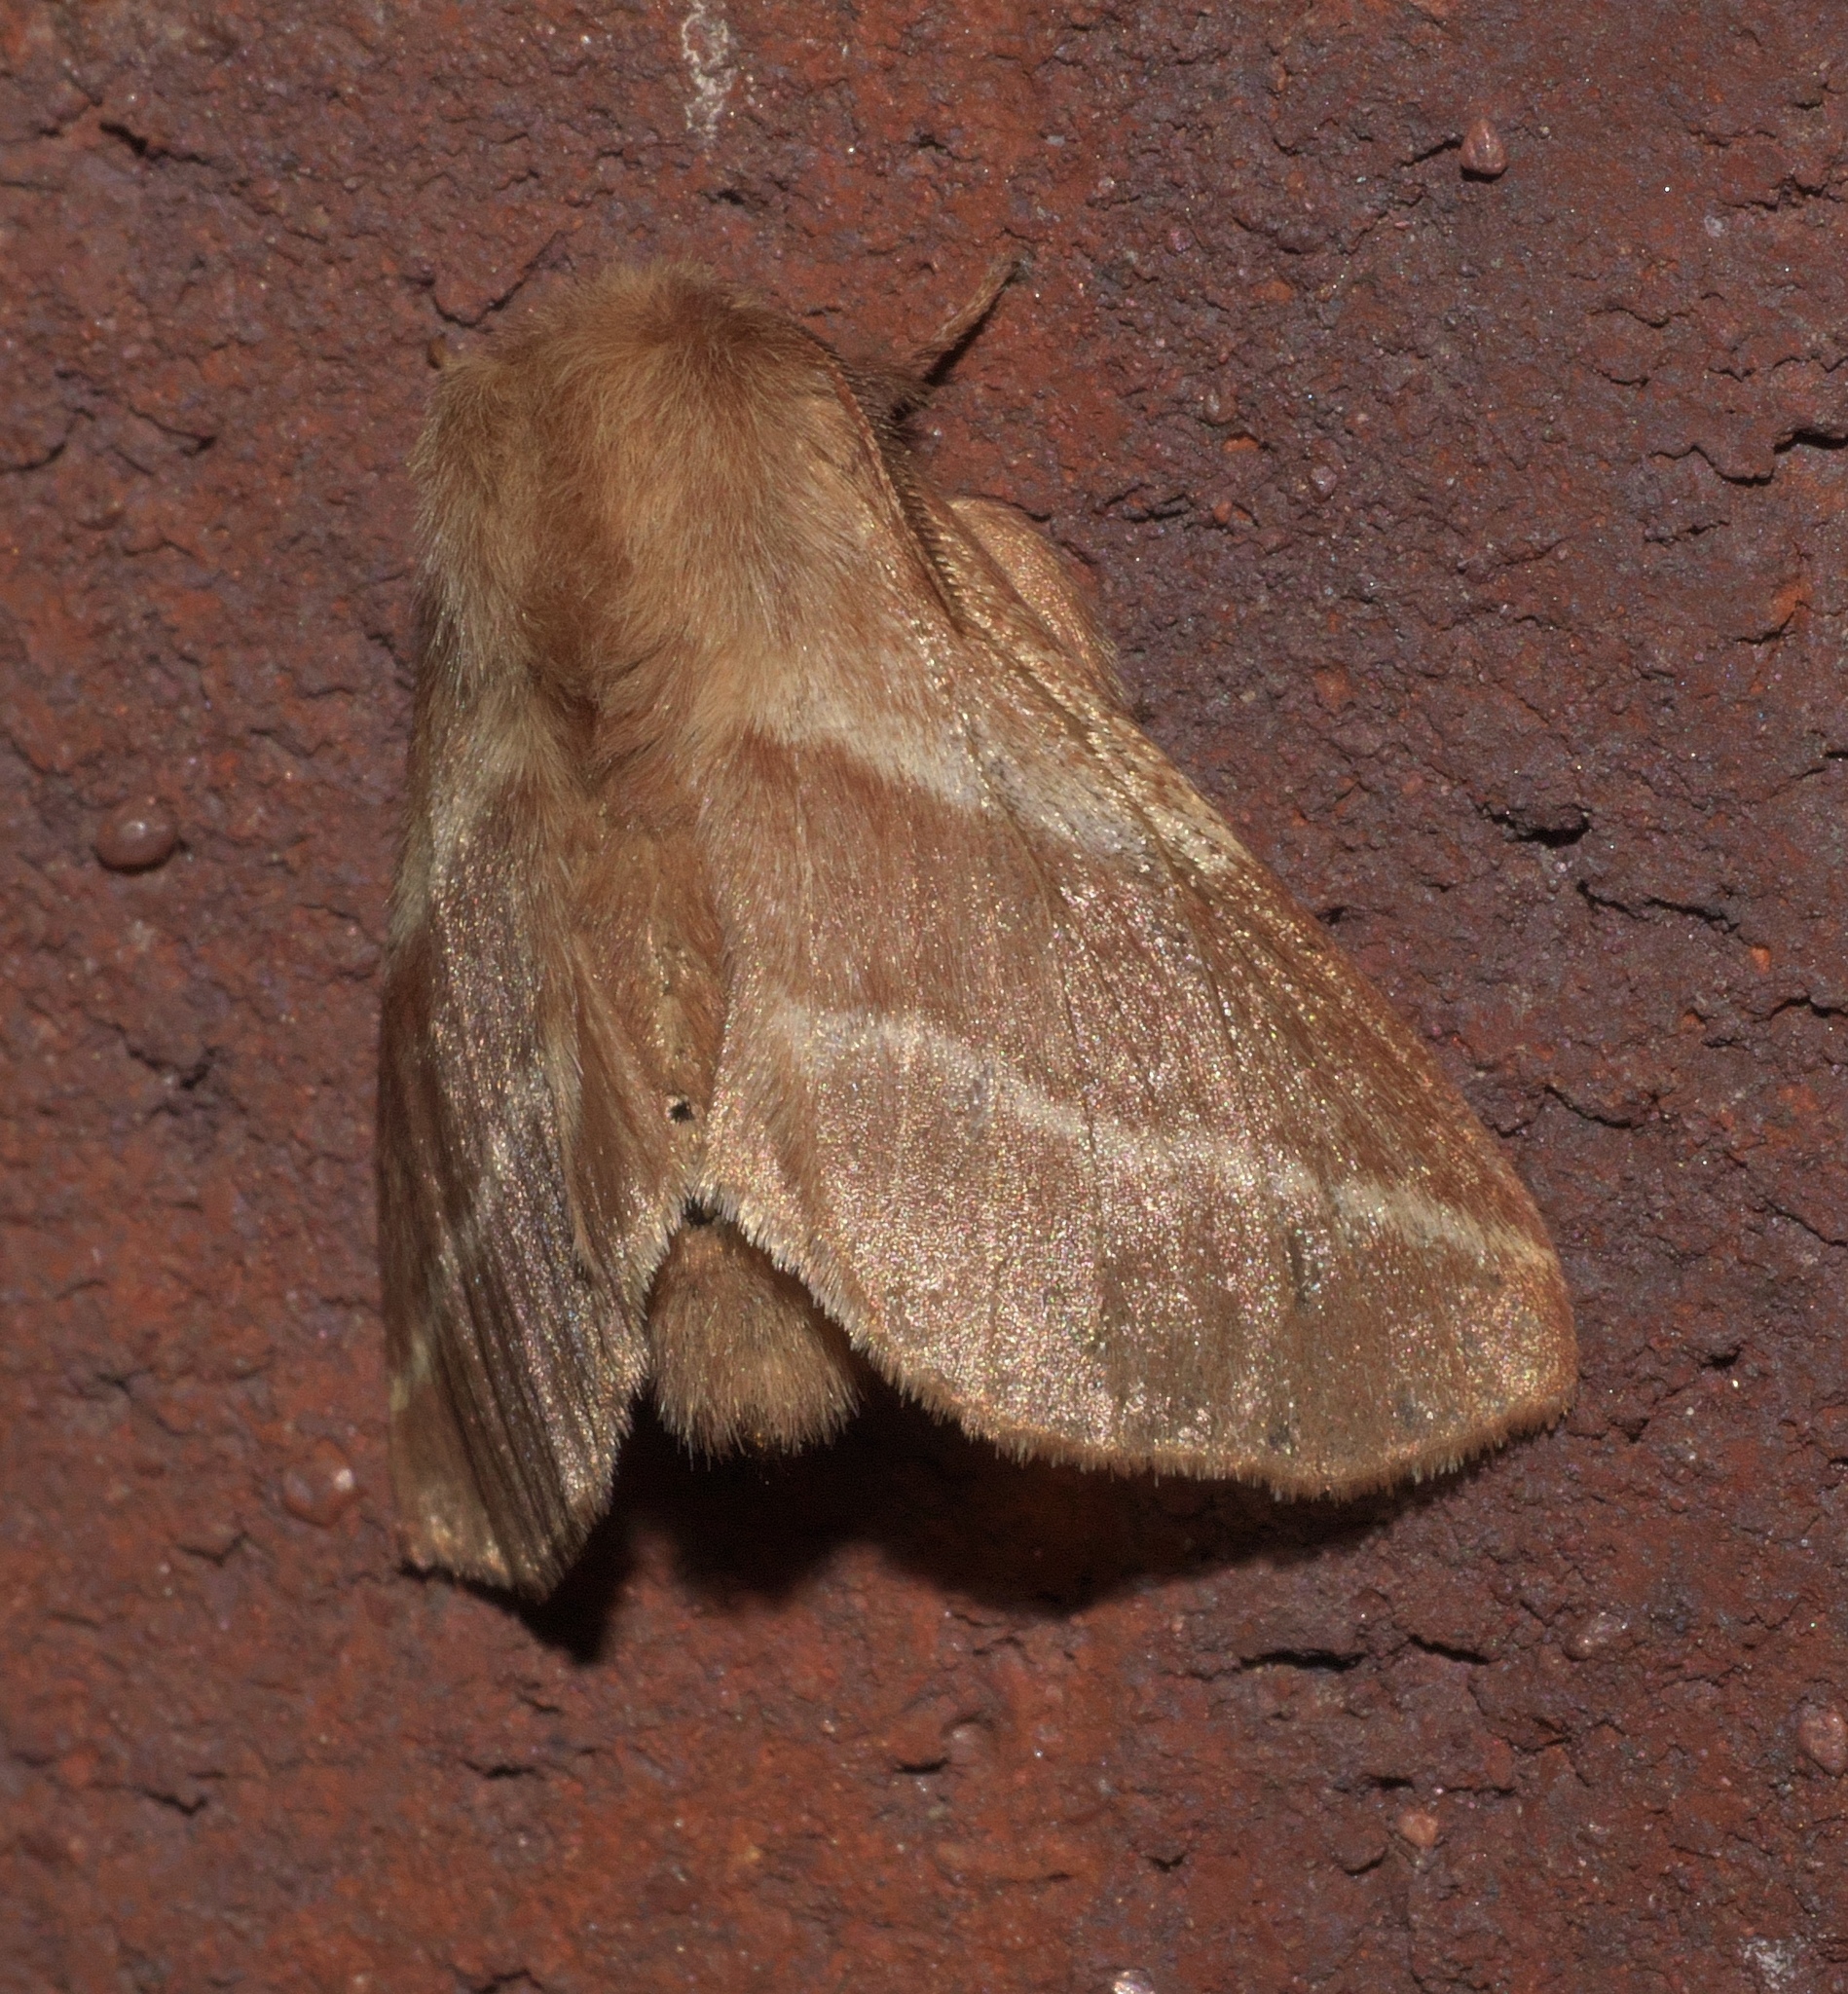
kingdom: Animalia
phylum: Arthropoda
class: Insecta
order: Lepidoptera
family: Lasiocampidae
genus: Malacosoma
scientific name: Malacosoma americana
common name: Eastern tent caterpillar moth
